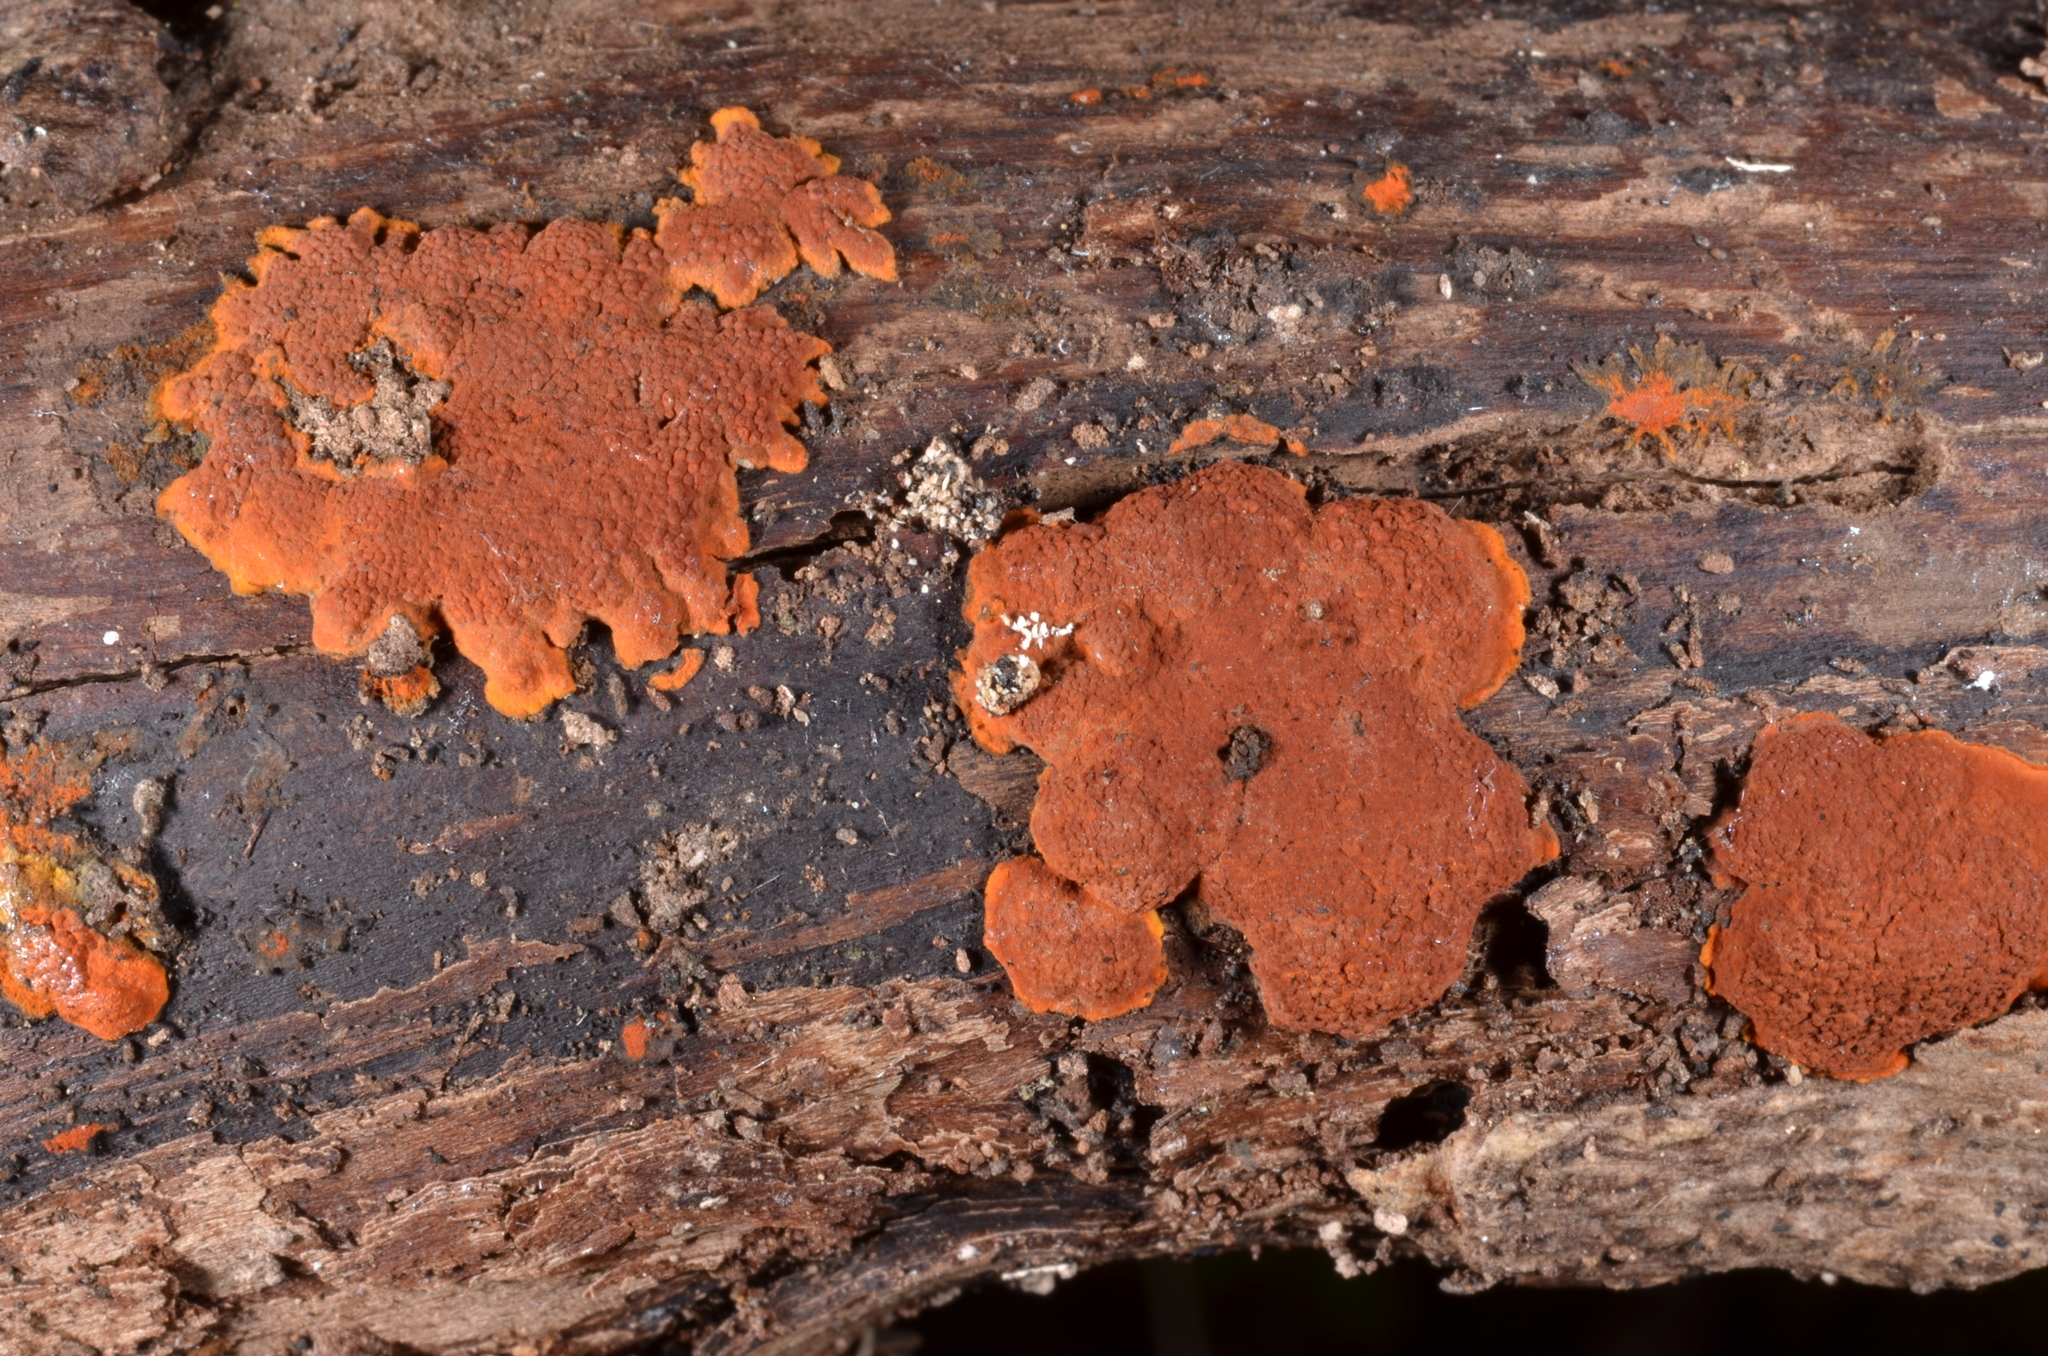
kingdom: Fungi
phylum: Ascomycota
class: Sordariomycetes
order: Xylariales
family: Hypoxylaceae
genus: Hypoxylon
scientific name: Hypoxylon ticinense
